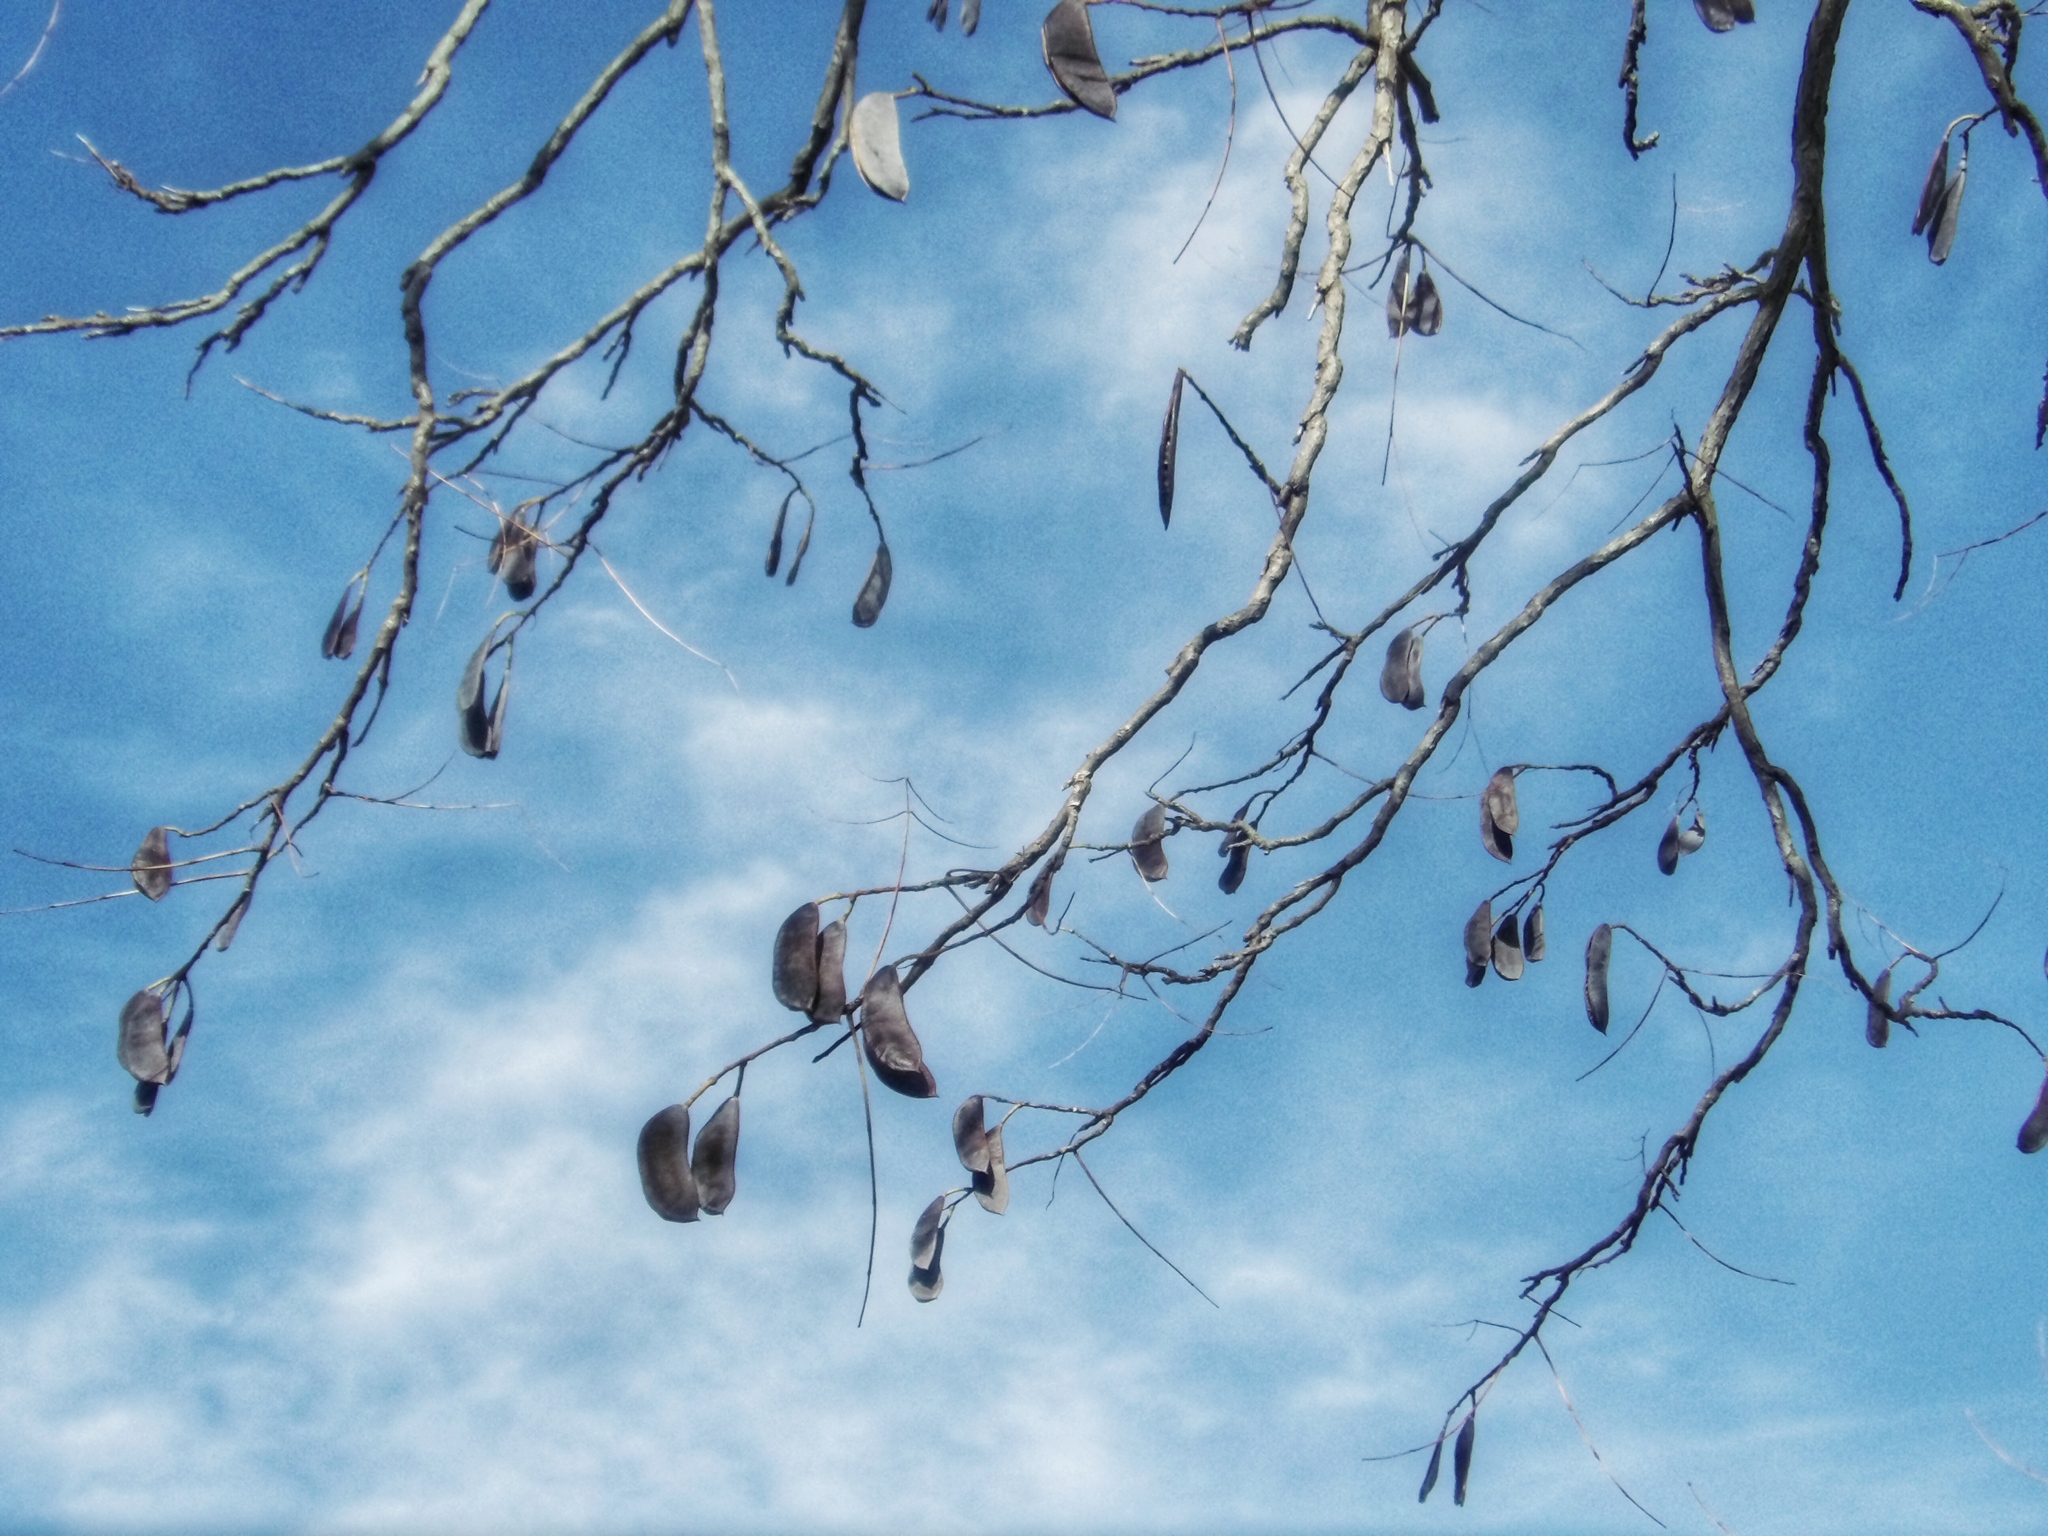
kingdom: Plantae
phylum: Tracheophyta
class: Magnoliopsida
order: Fabales
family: Fabaceae
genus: Gymnocladus
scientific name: Gymnocladus dioicus
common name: Kentucky coffee-tree
